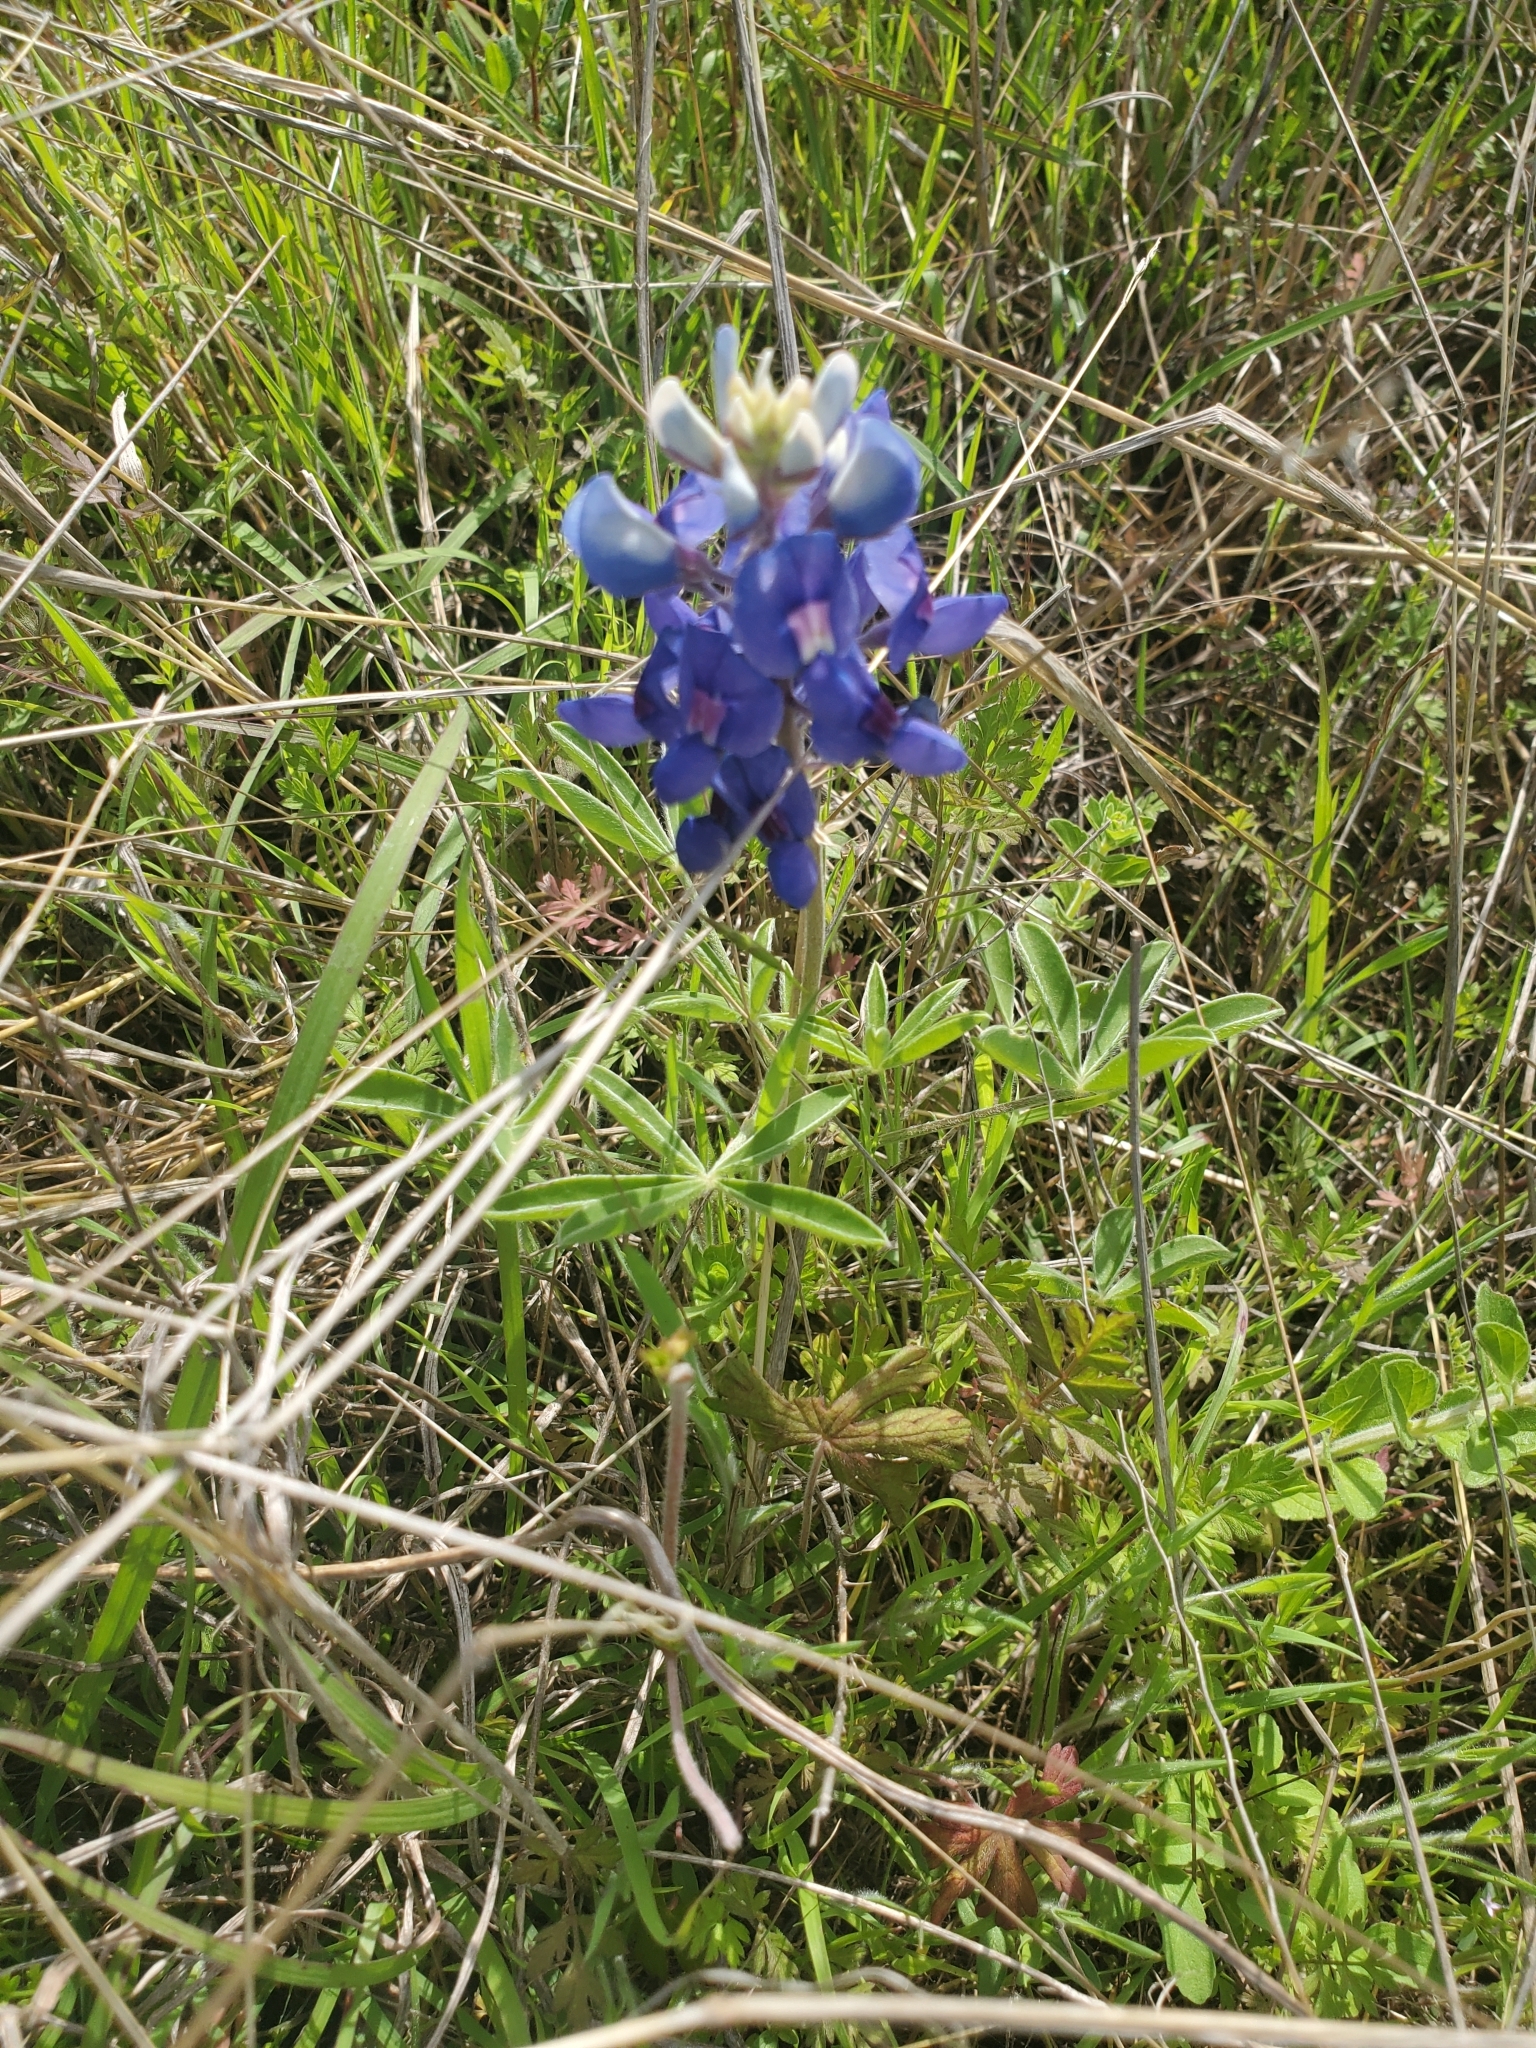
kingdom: Plantae
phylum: Tracheophyta
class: Magnoliopsida
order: Fabales
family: Fabaceae
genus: Lupinus
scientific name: Lupinus texensis
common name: Texas bluebonnet
